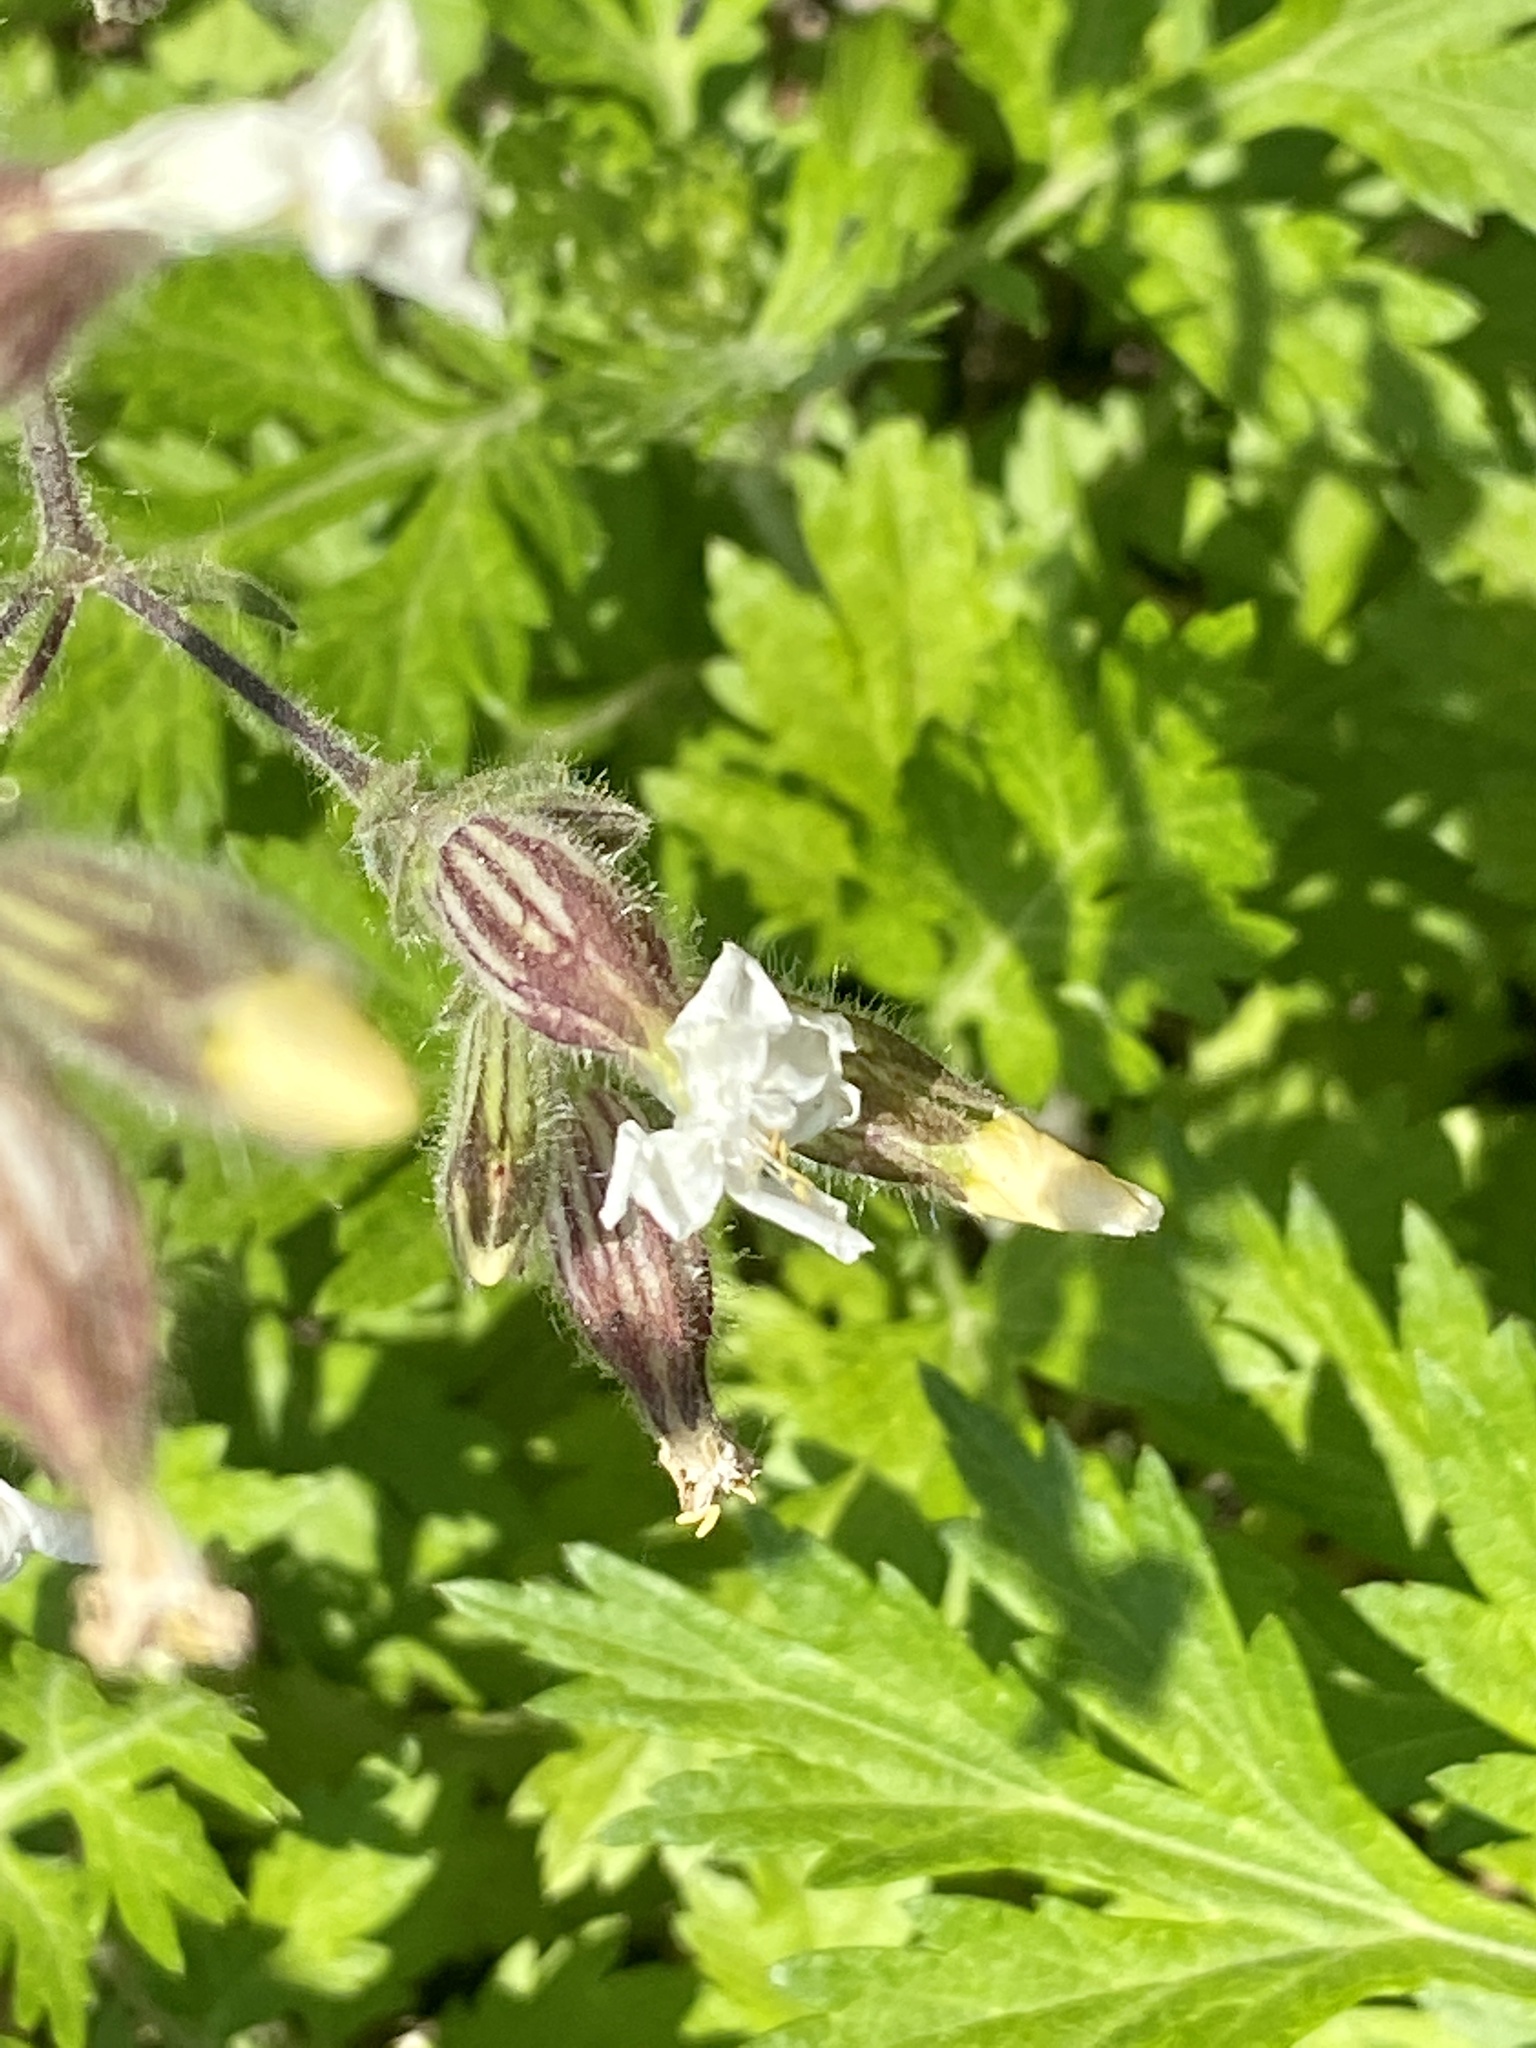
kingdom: Plantae
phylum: Tracheophyta
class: Magnoliopsida
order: Caryophyllales
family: Caryophyllaceae
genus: Silene
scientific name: Silene latifolia
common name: White campion
